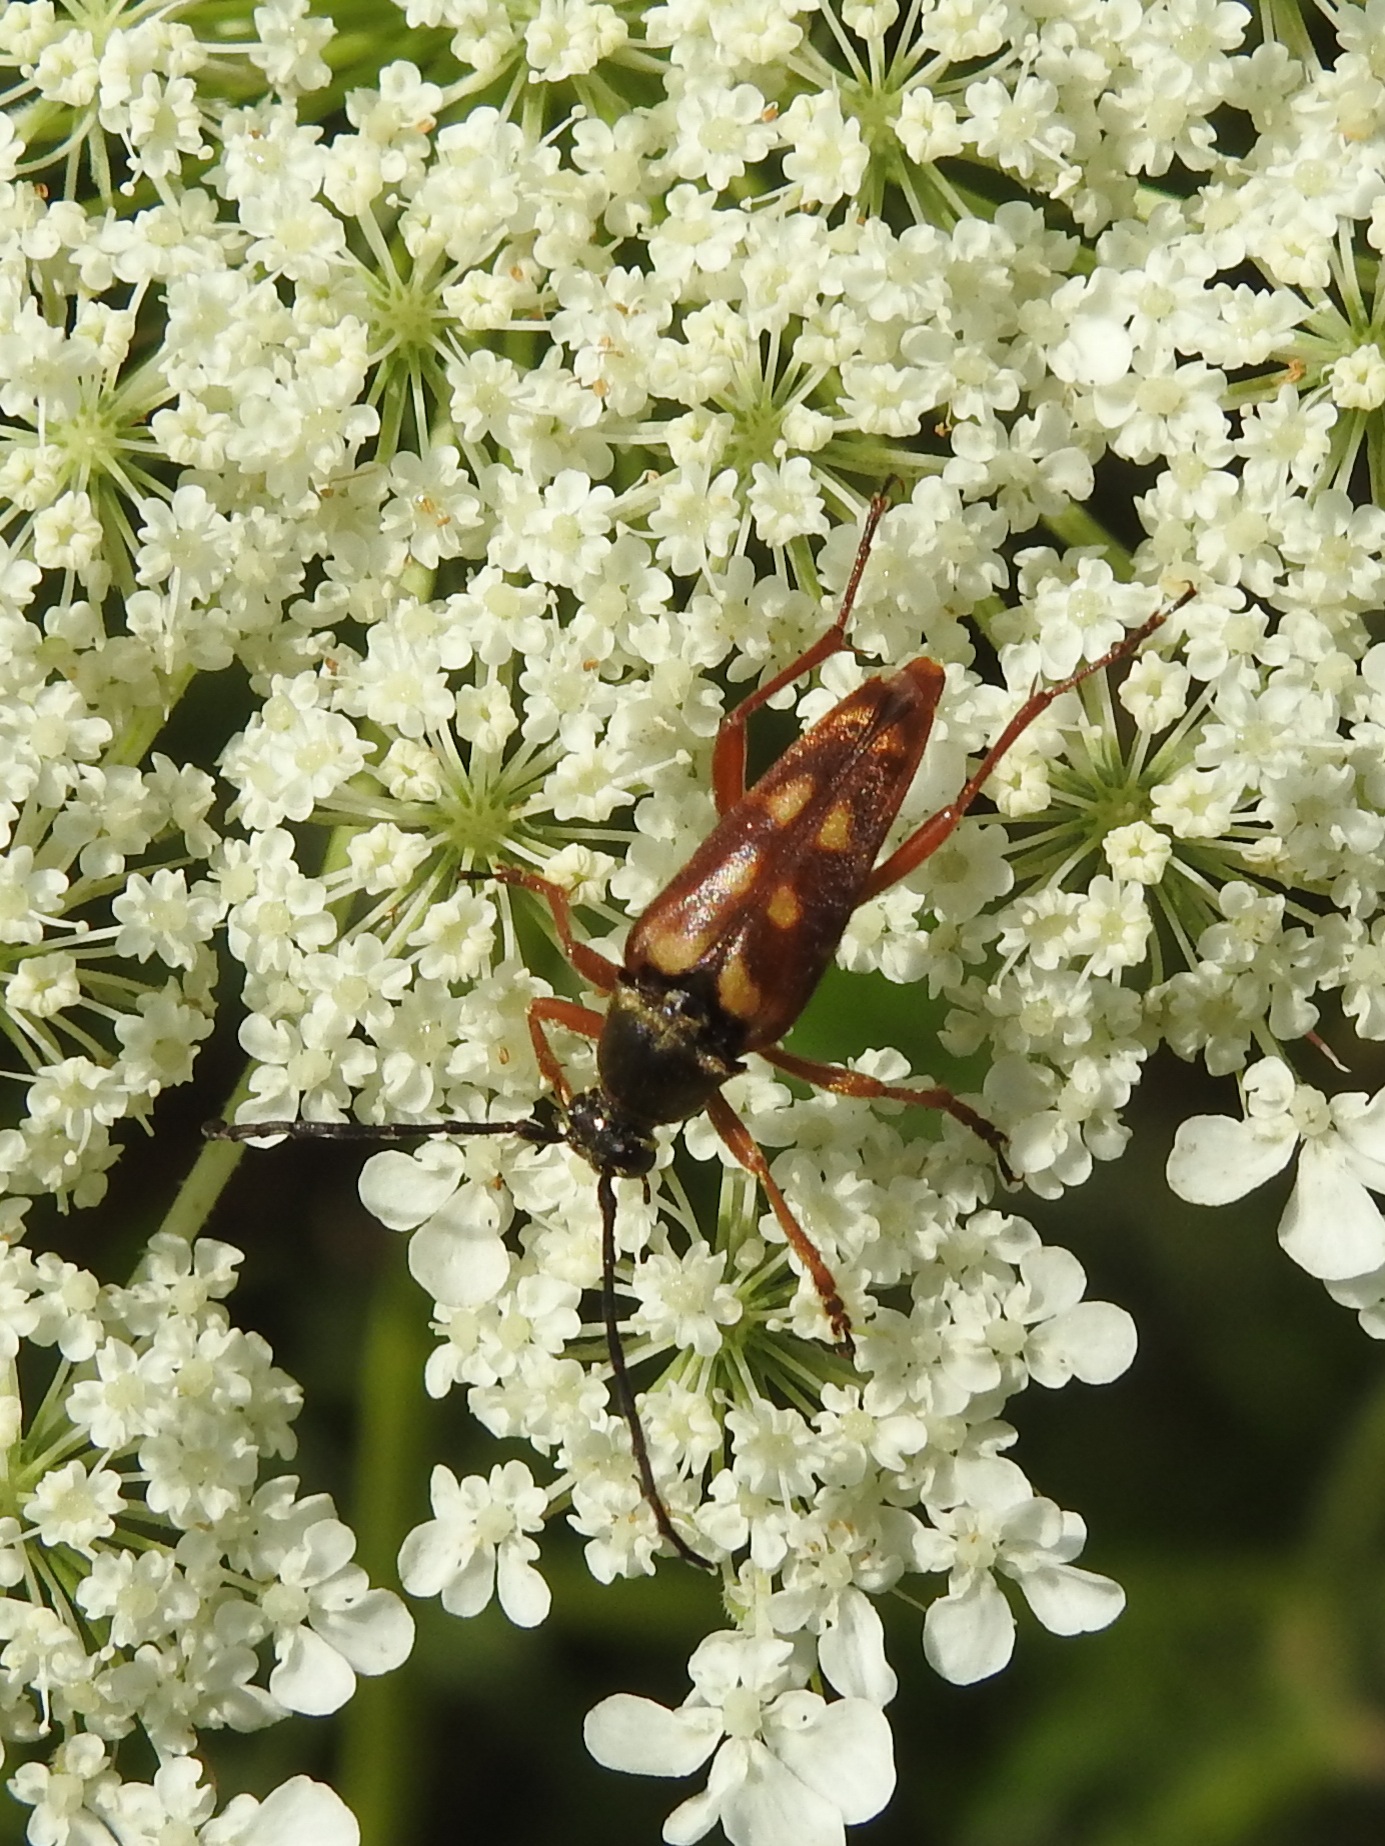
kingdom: Animalia
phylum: Arthropoda
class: Insecta
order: Coleoptera
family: Cerambycidae
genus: Typocerus
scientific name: Typocerus velutinus
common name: Banded longhorn beetle
